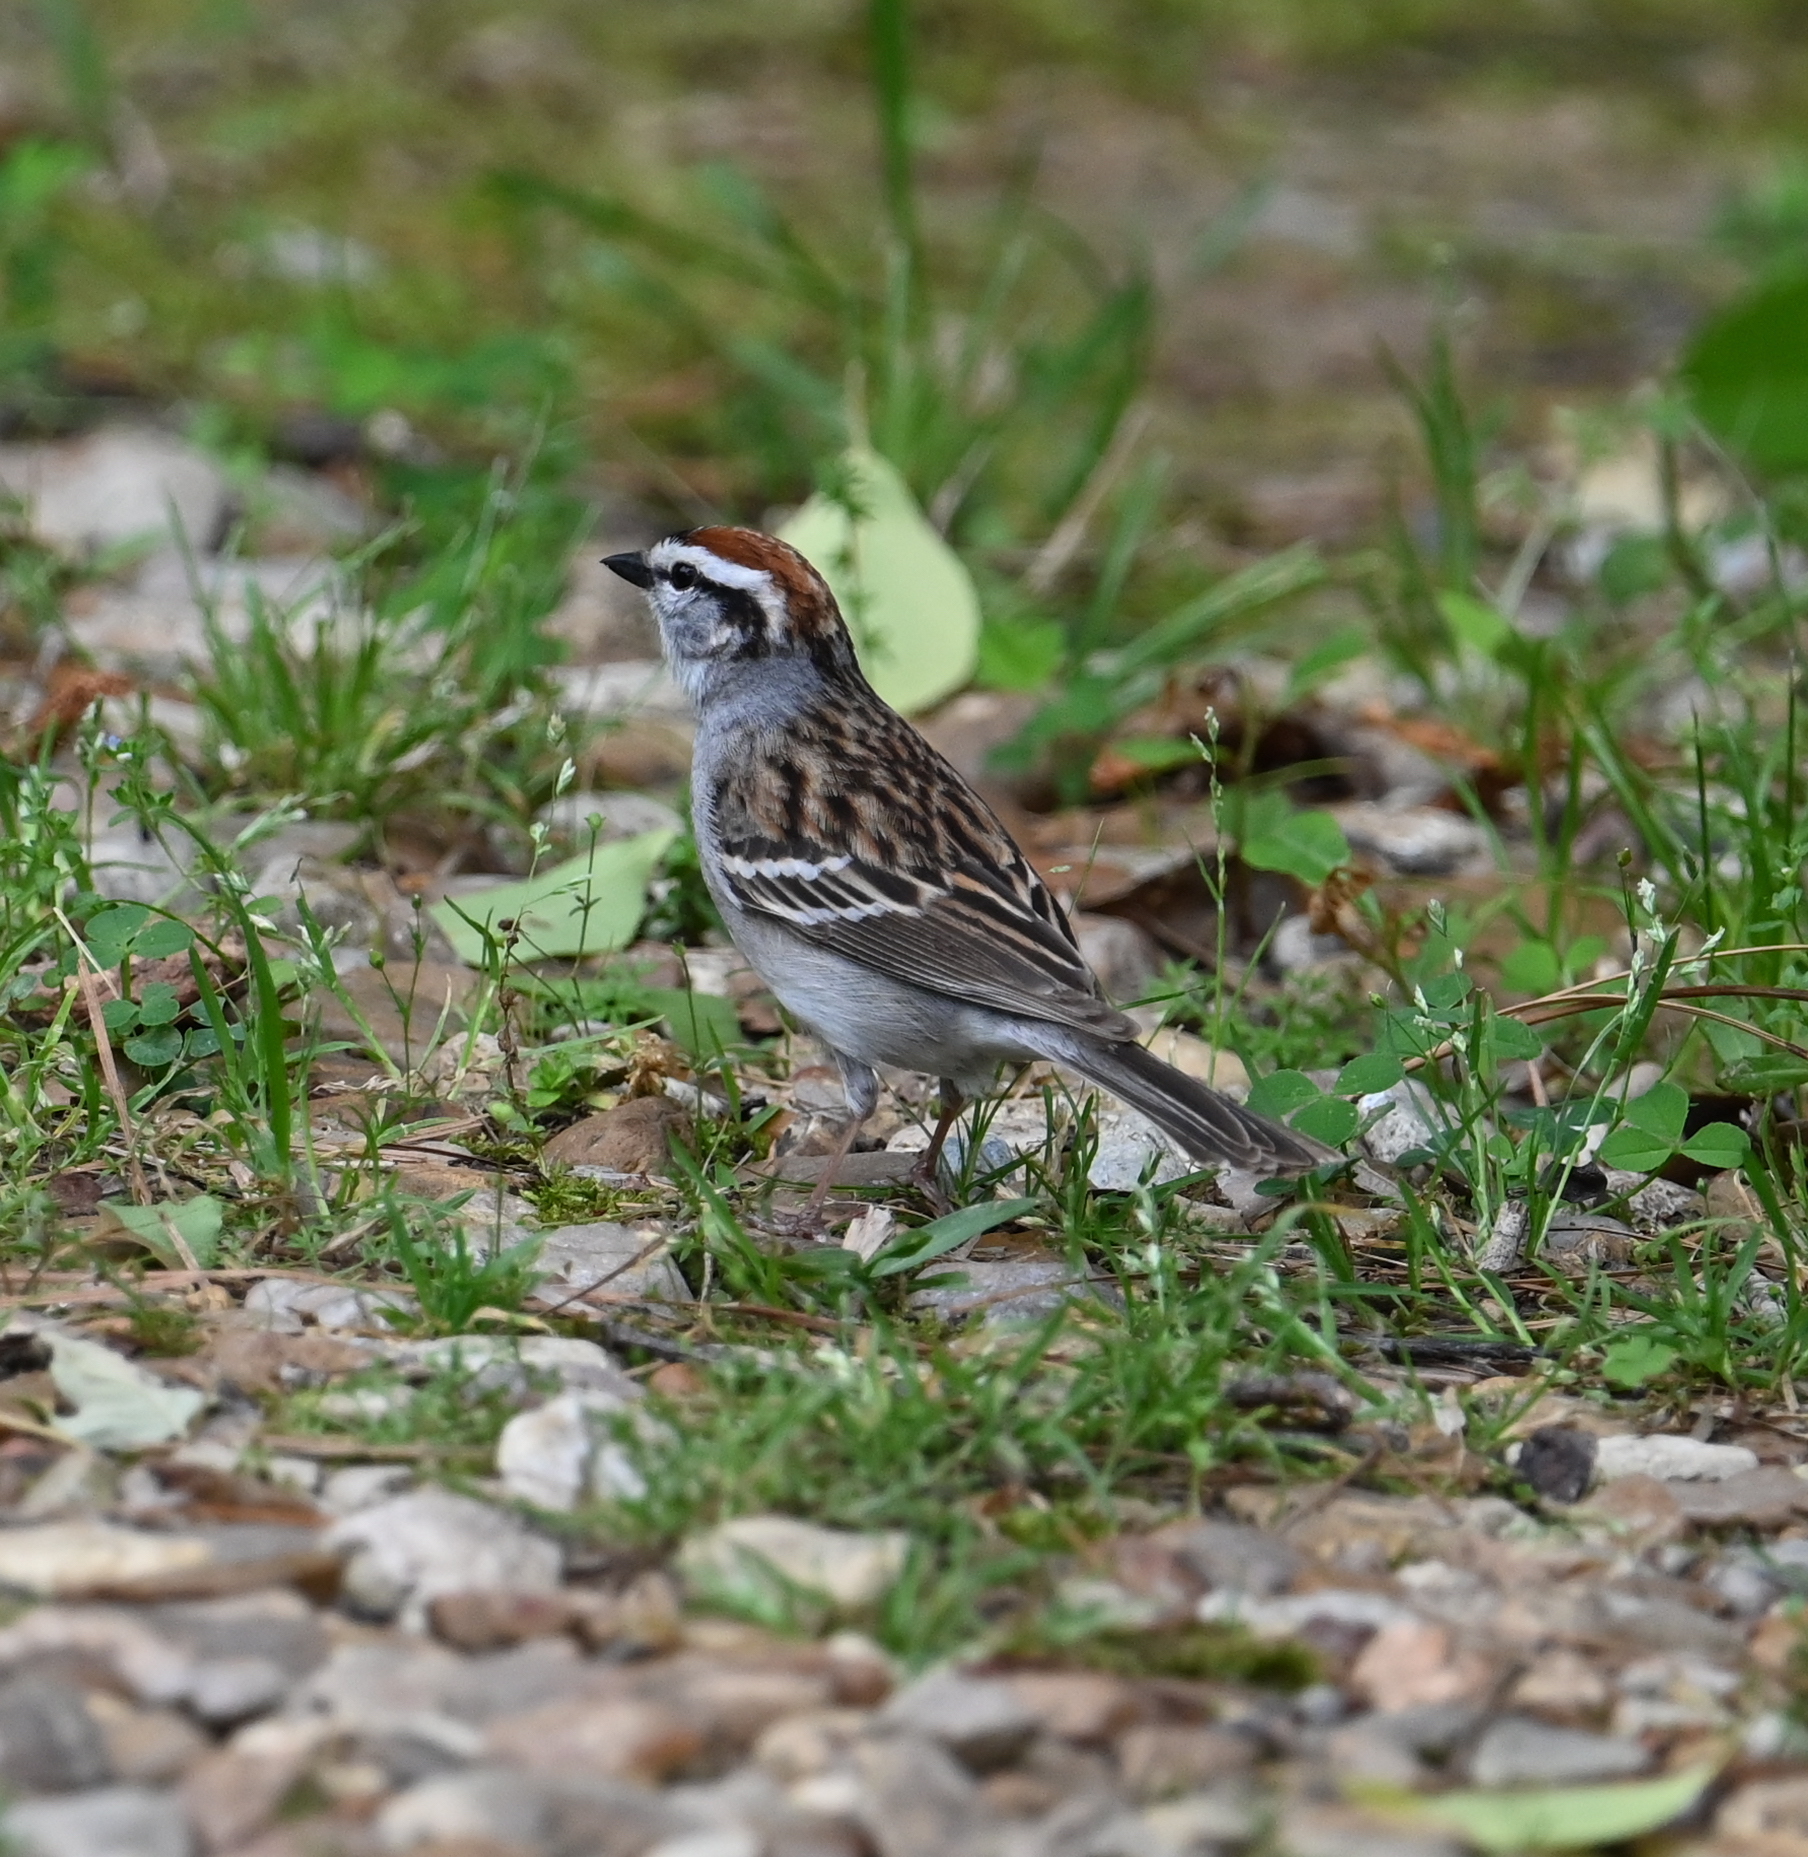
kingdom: Animalia
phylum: Chordata
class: Aves
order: Passeriformes
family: Passerellidae
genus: Spizella
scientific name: Spizella passerina
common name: Chipping sparrow
